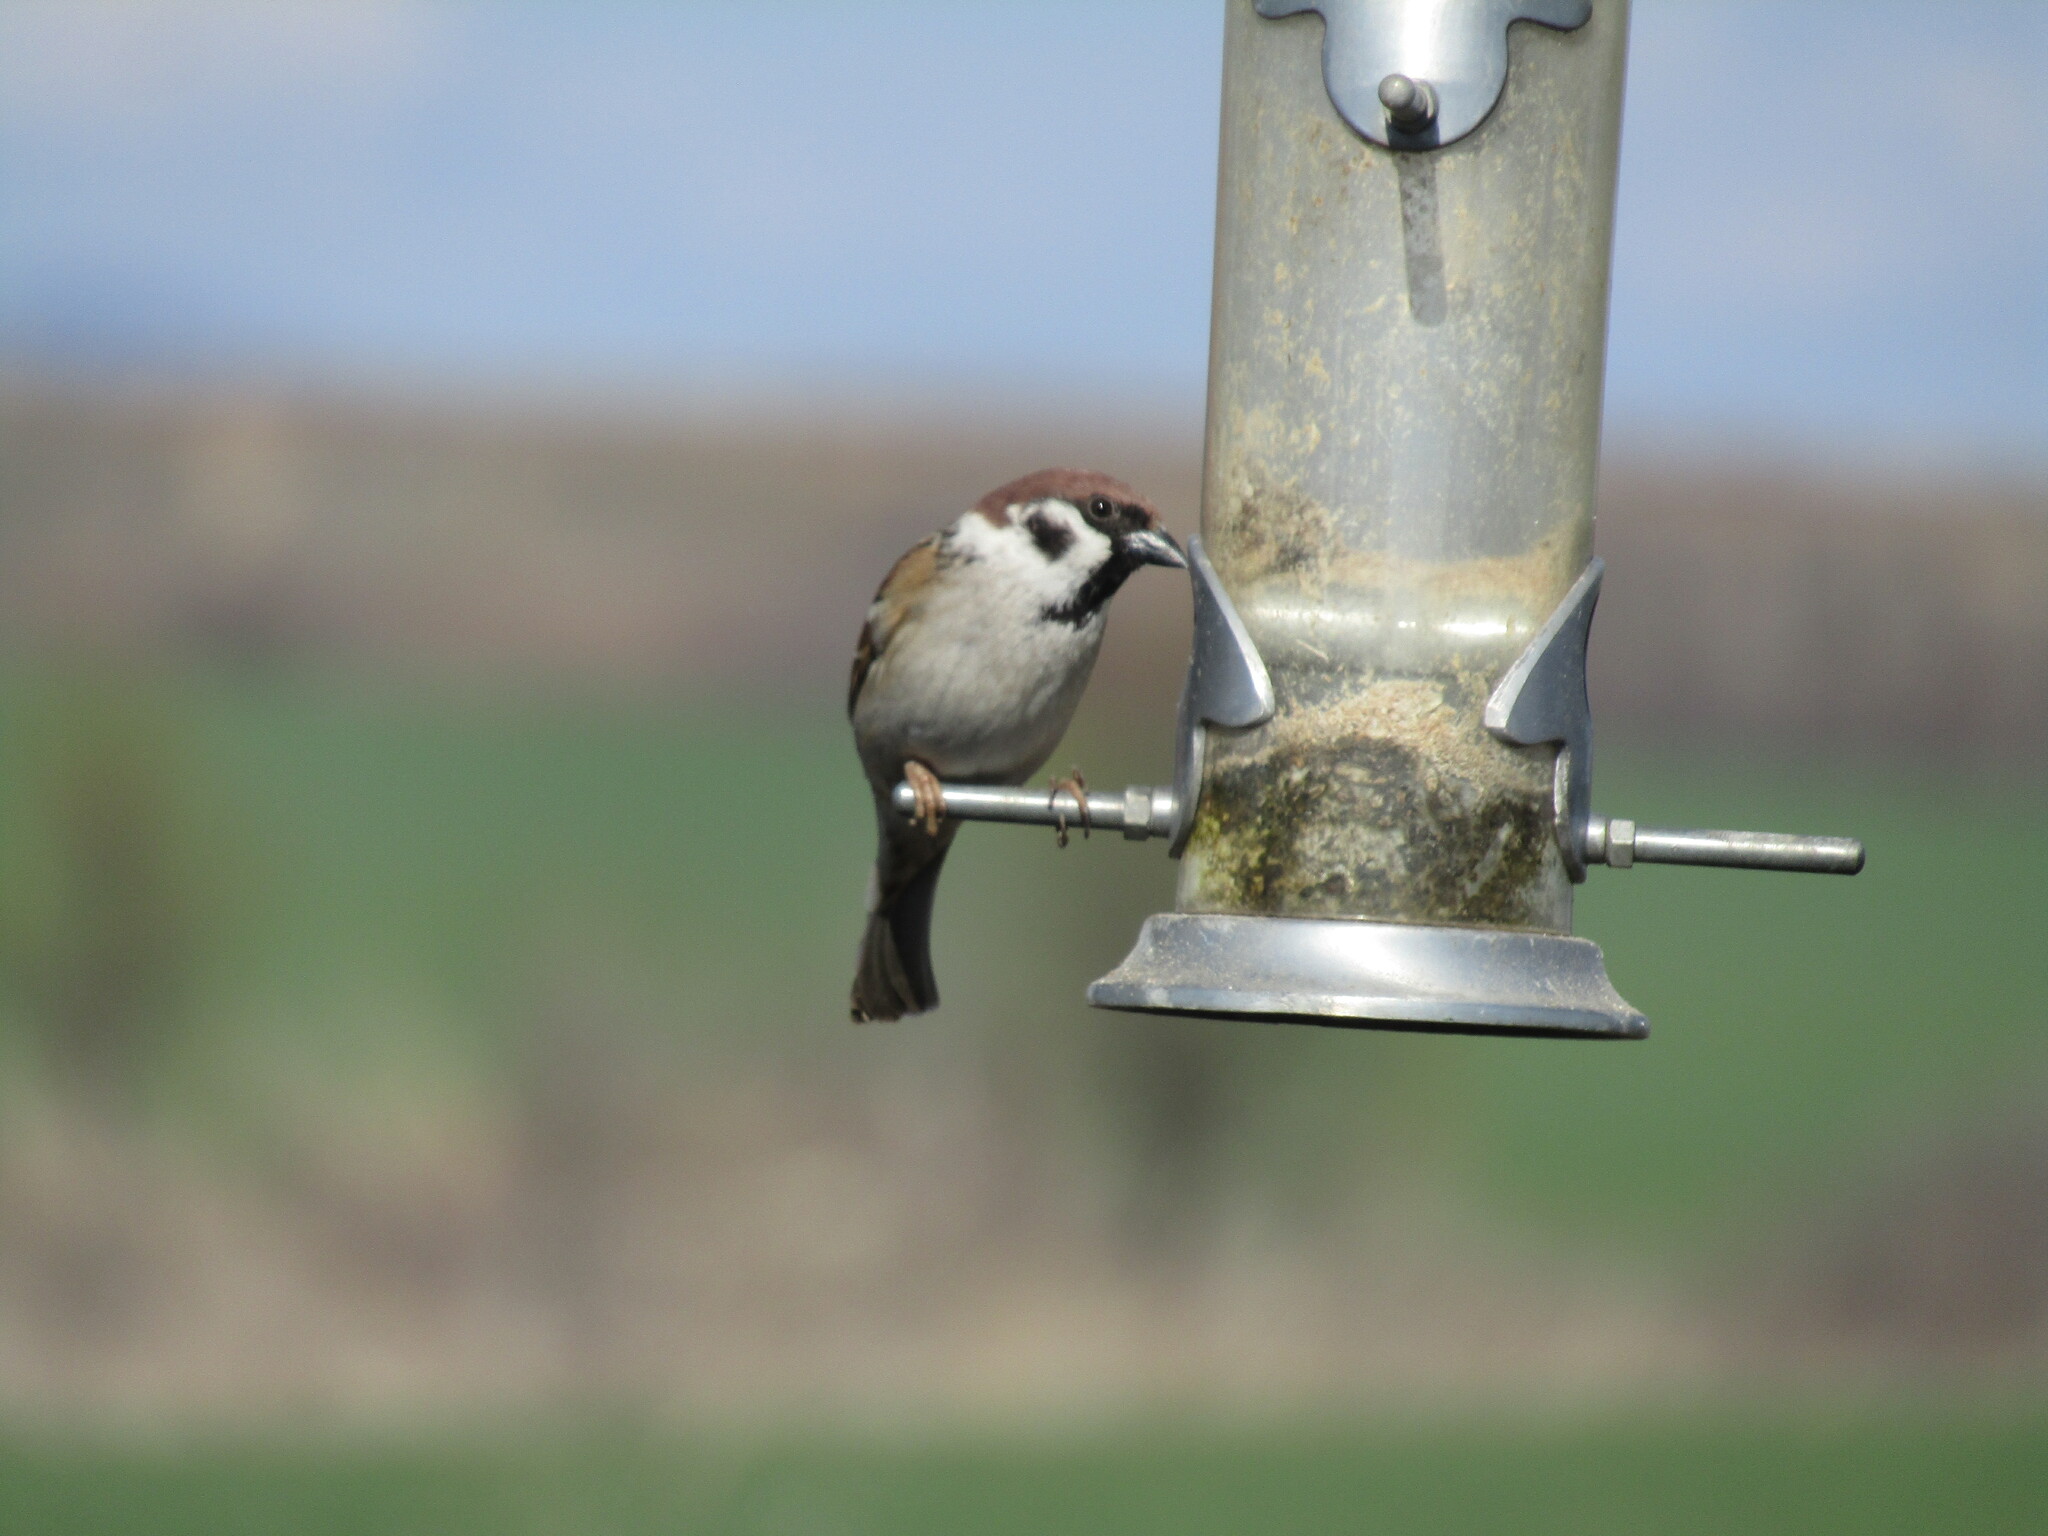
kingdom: Animalia
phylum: Chordata
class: Aves
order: Passeriformes
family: Passeridae
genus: Passer
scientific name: Passer montanus
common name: Eurasian tree sparrow
